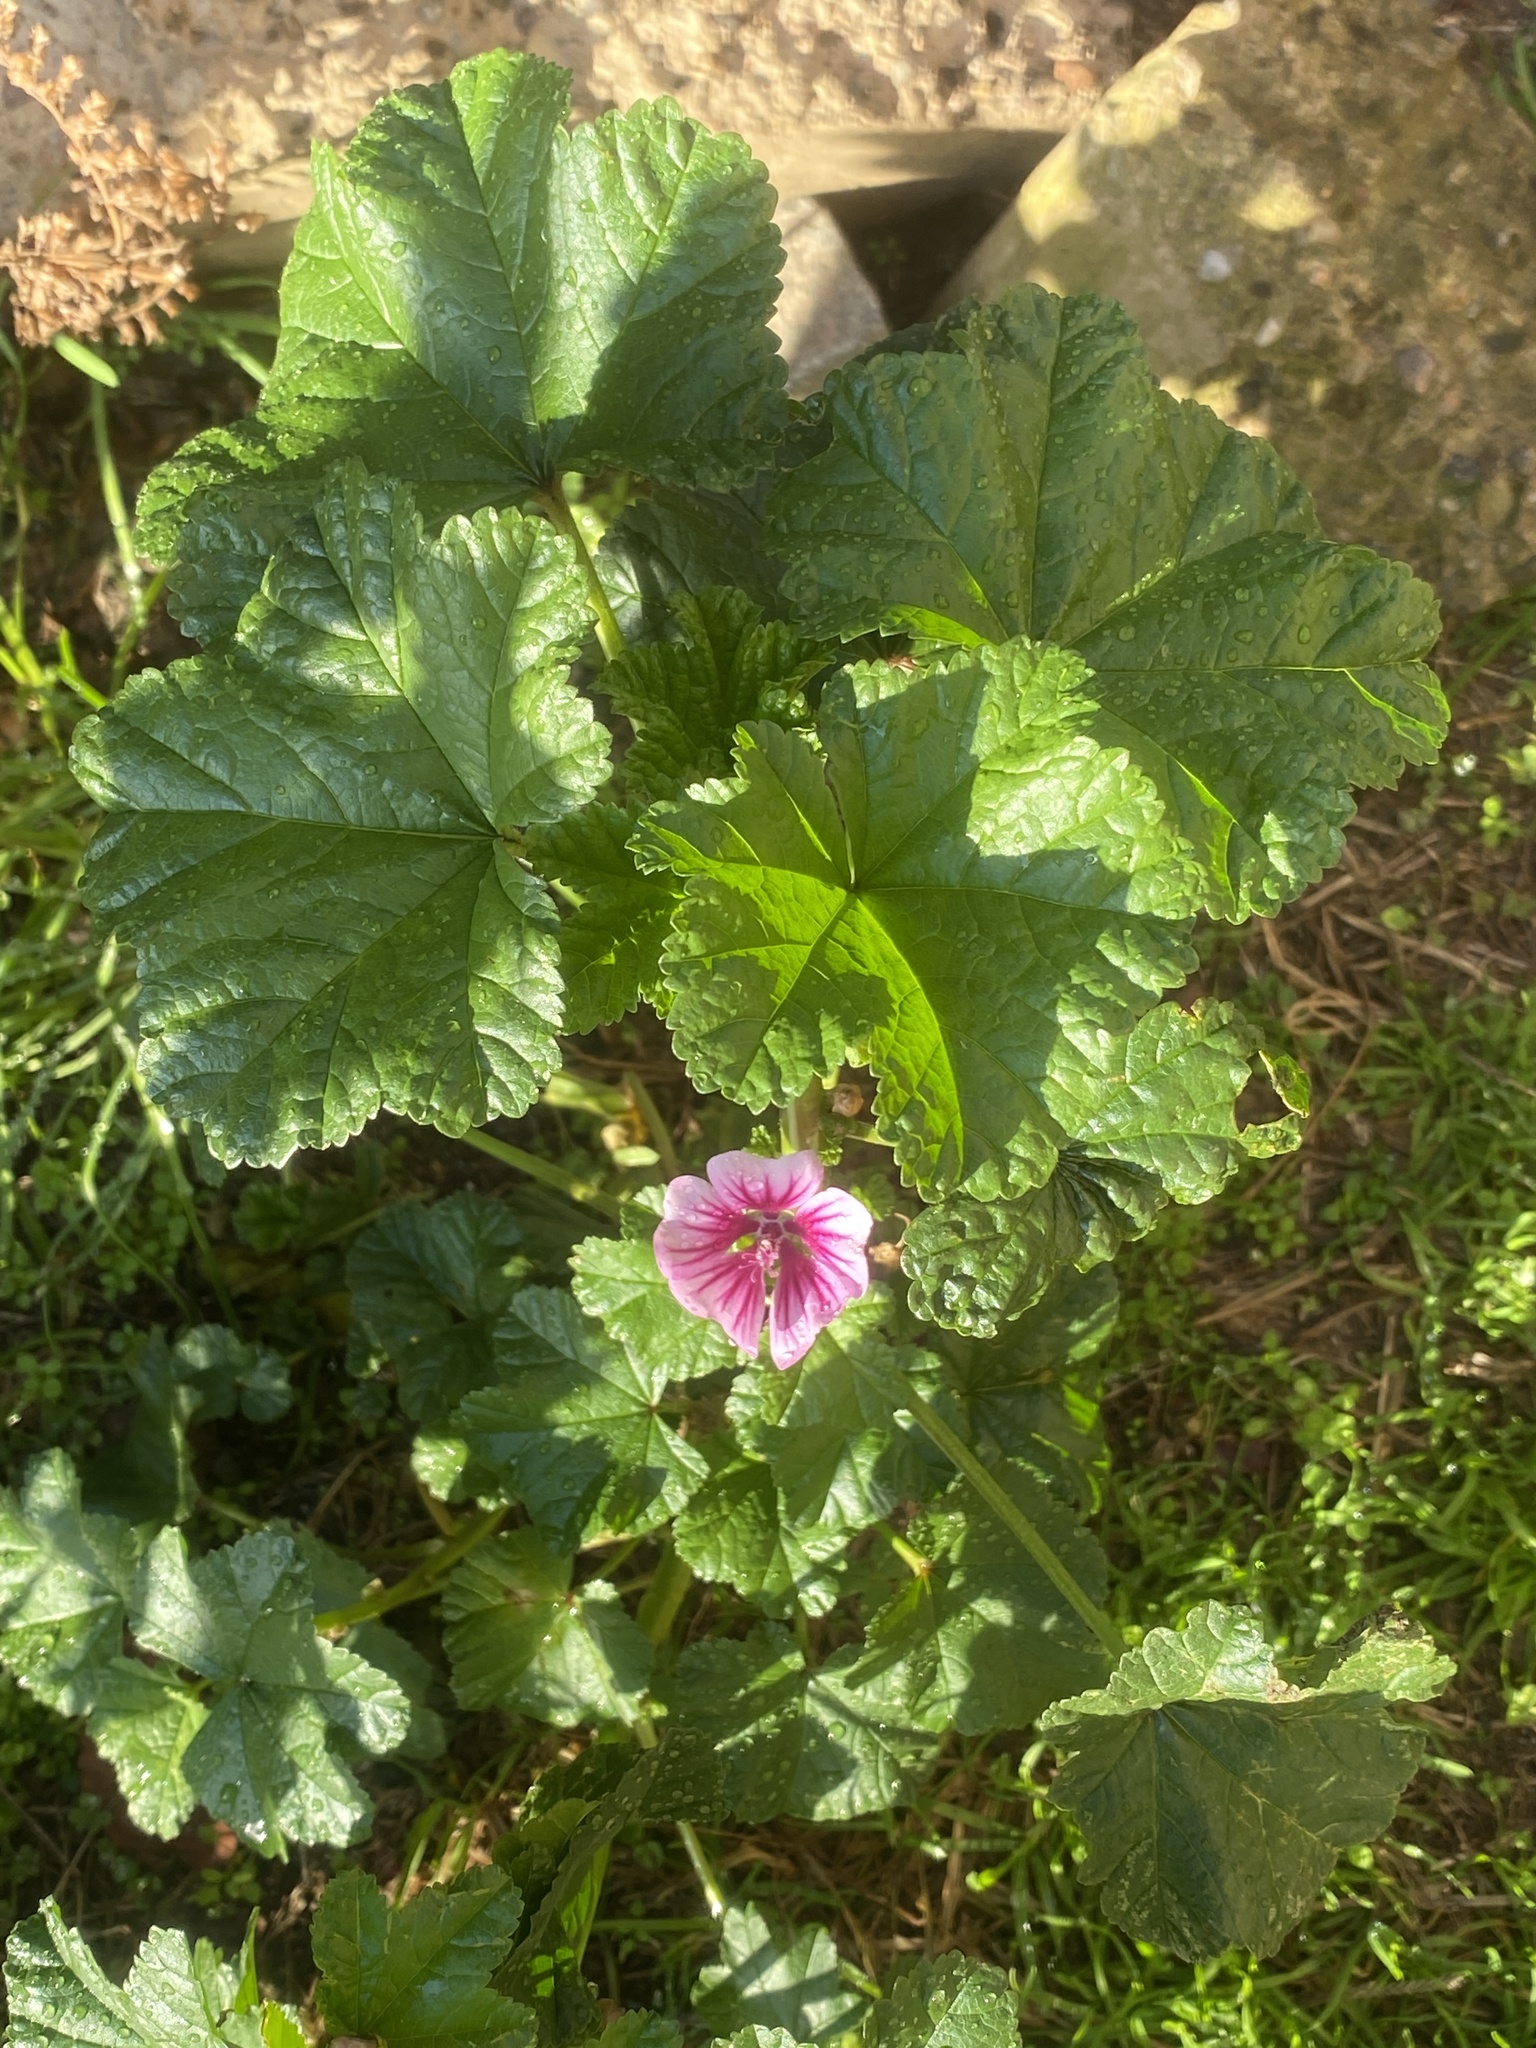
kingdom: Plantae
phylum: Tracheophyta
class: Magnoliopsida
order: Malvales
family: Malvaceae
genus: Malva
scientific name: Malva sylvestris
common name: Common mallow
